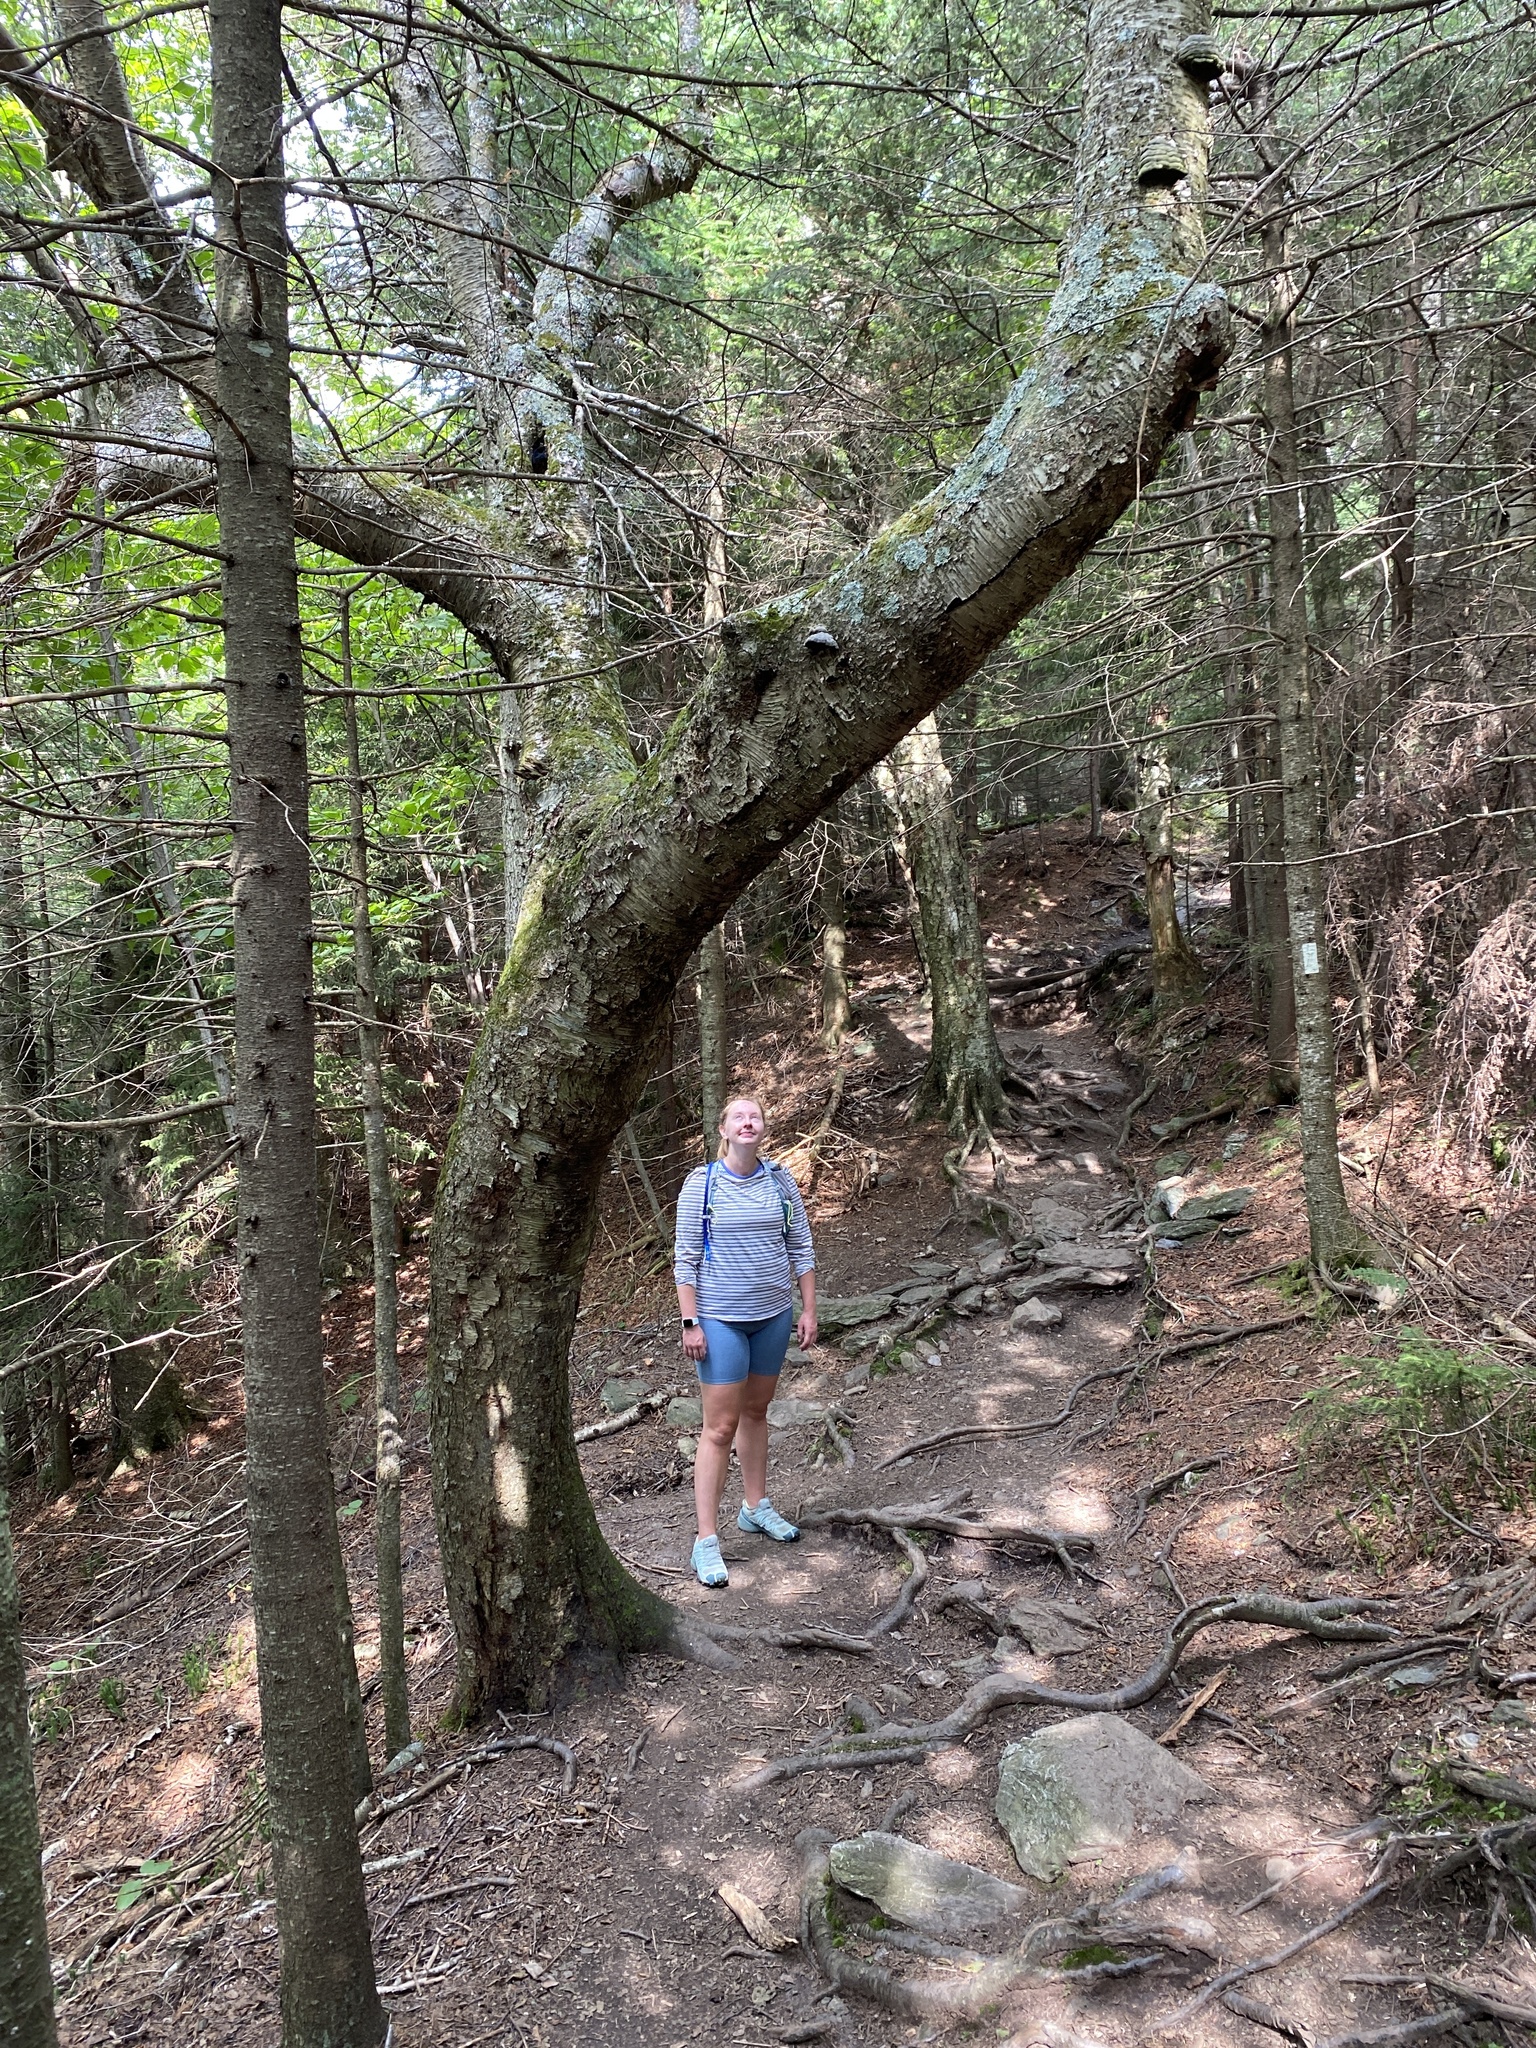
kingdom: Plantae
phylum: Tracheophyta
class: Magnoliopsida
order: Fagales
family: Betulaceae
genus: Betula
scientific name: Betula alleghaniensis
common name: Yellow birch
